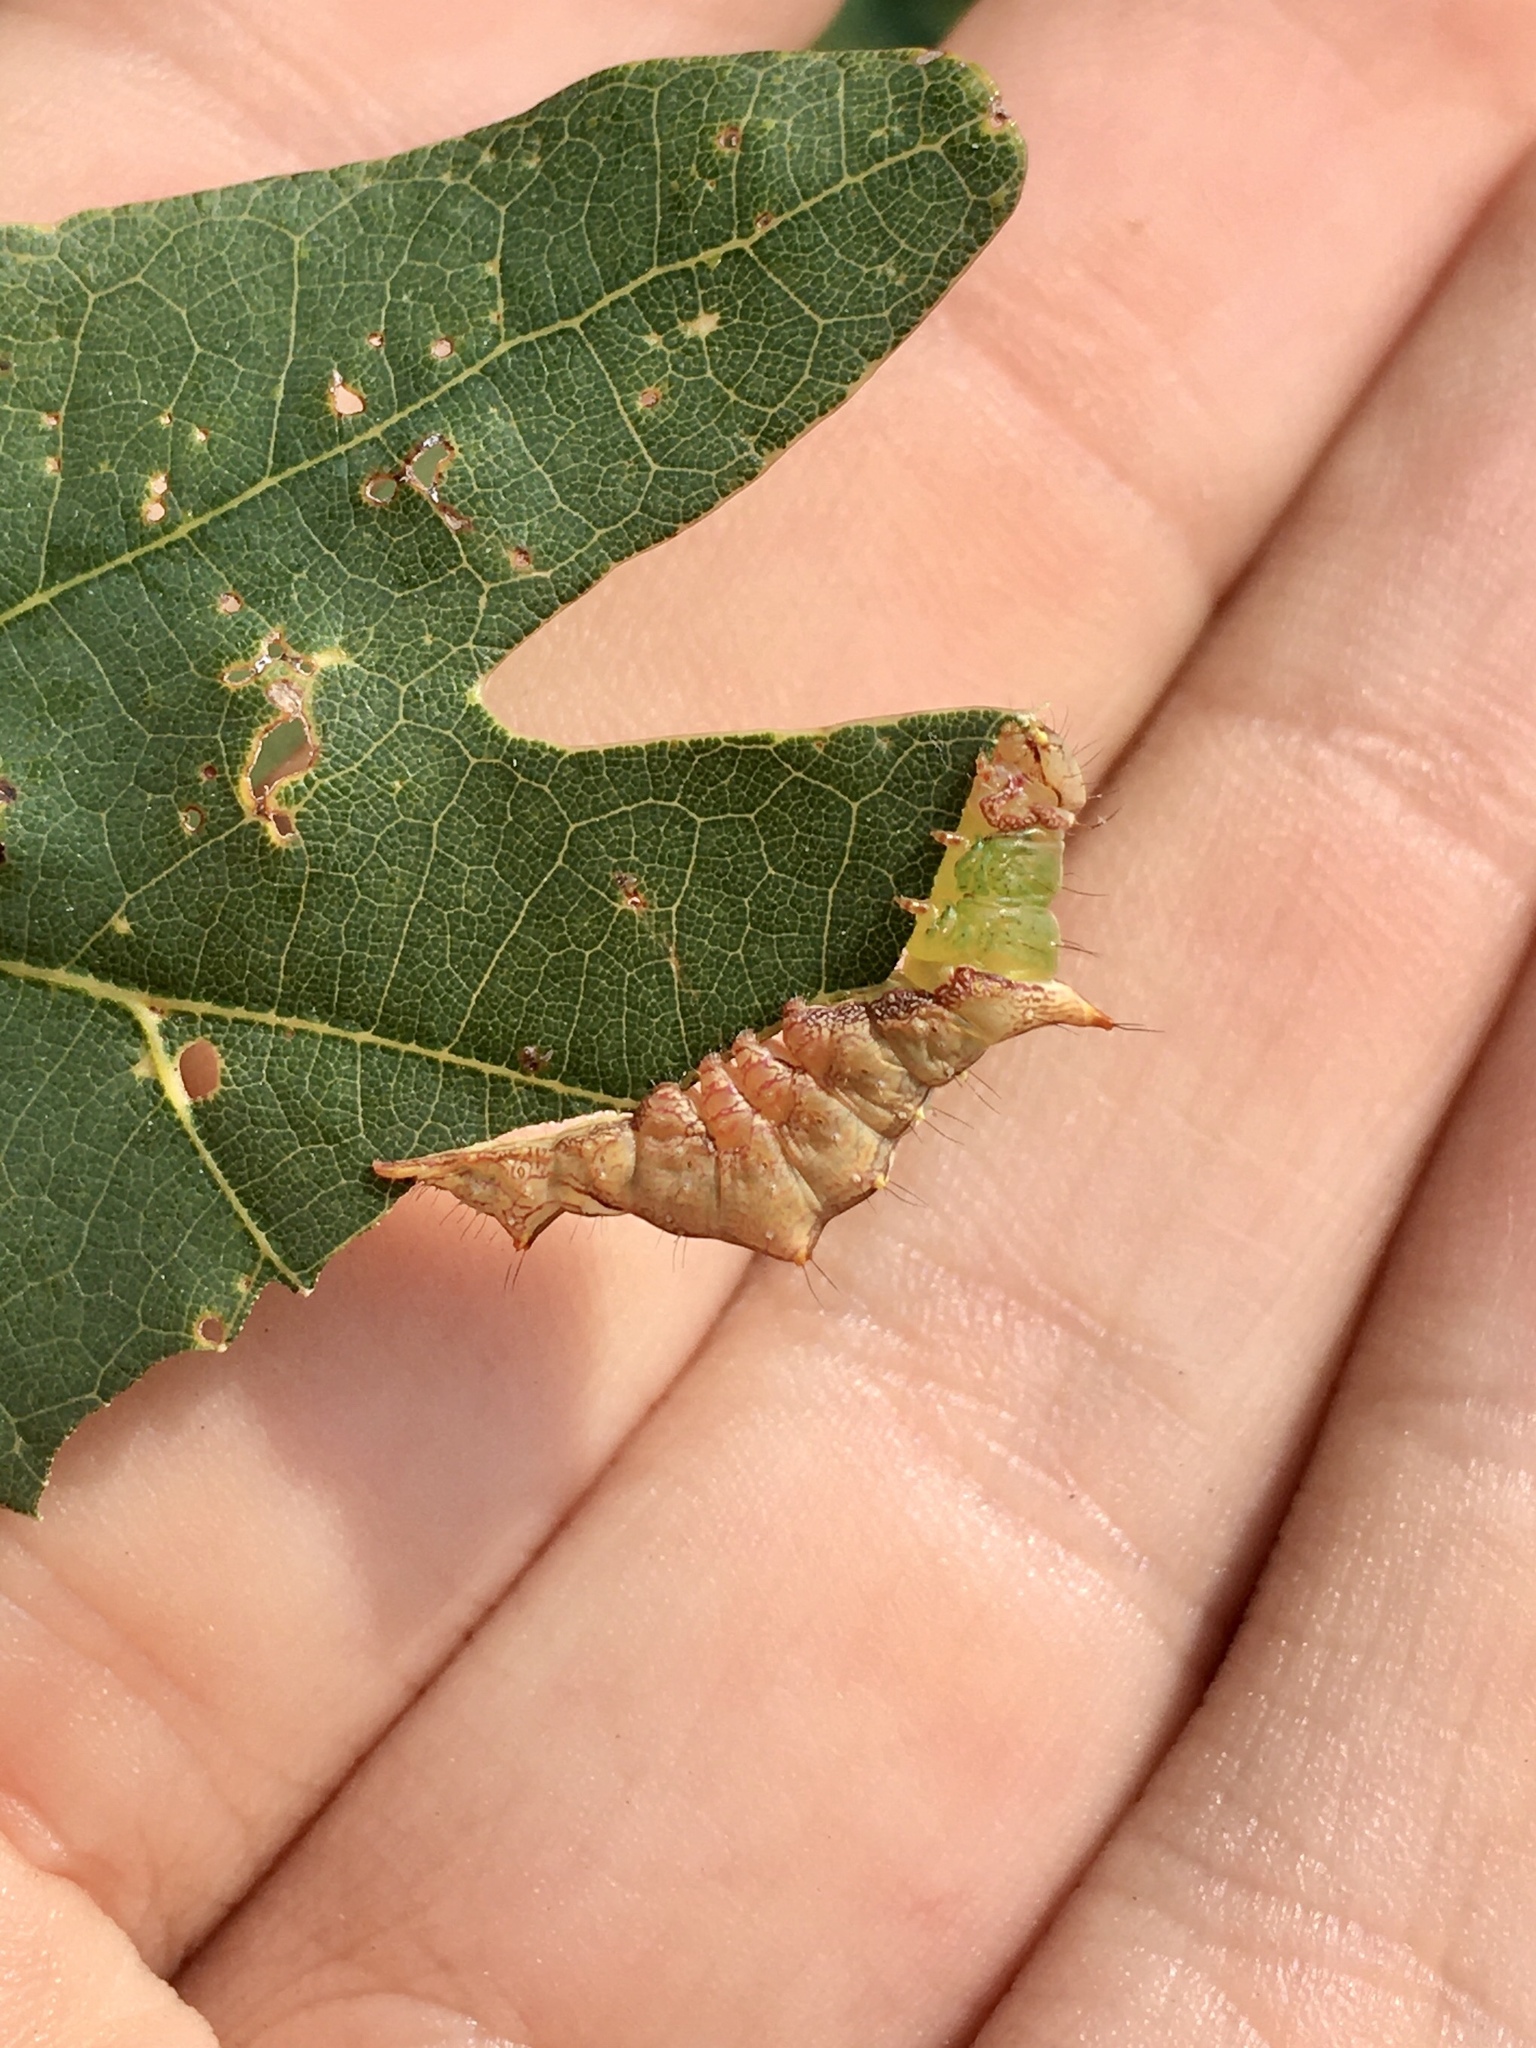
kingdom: Animalia
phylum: Arthropoda
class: Insecta
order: Lepidoptera
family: Notodontidae
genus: Schizura
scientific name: Schizura ipomaeae
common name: Morning-glory prominent
